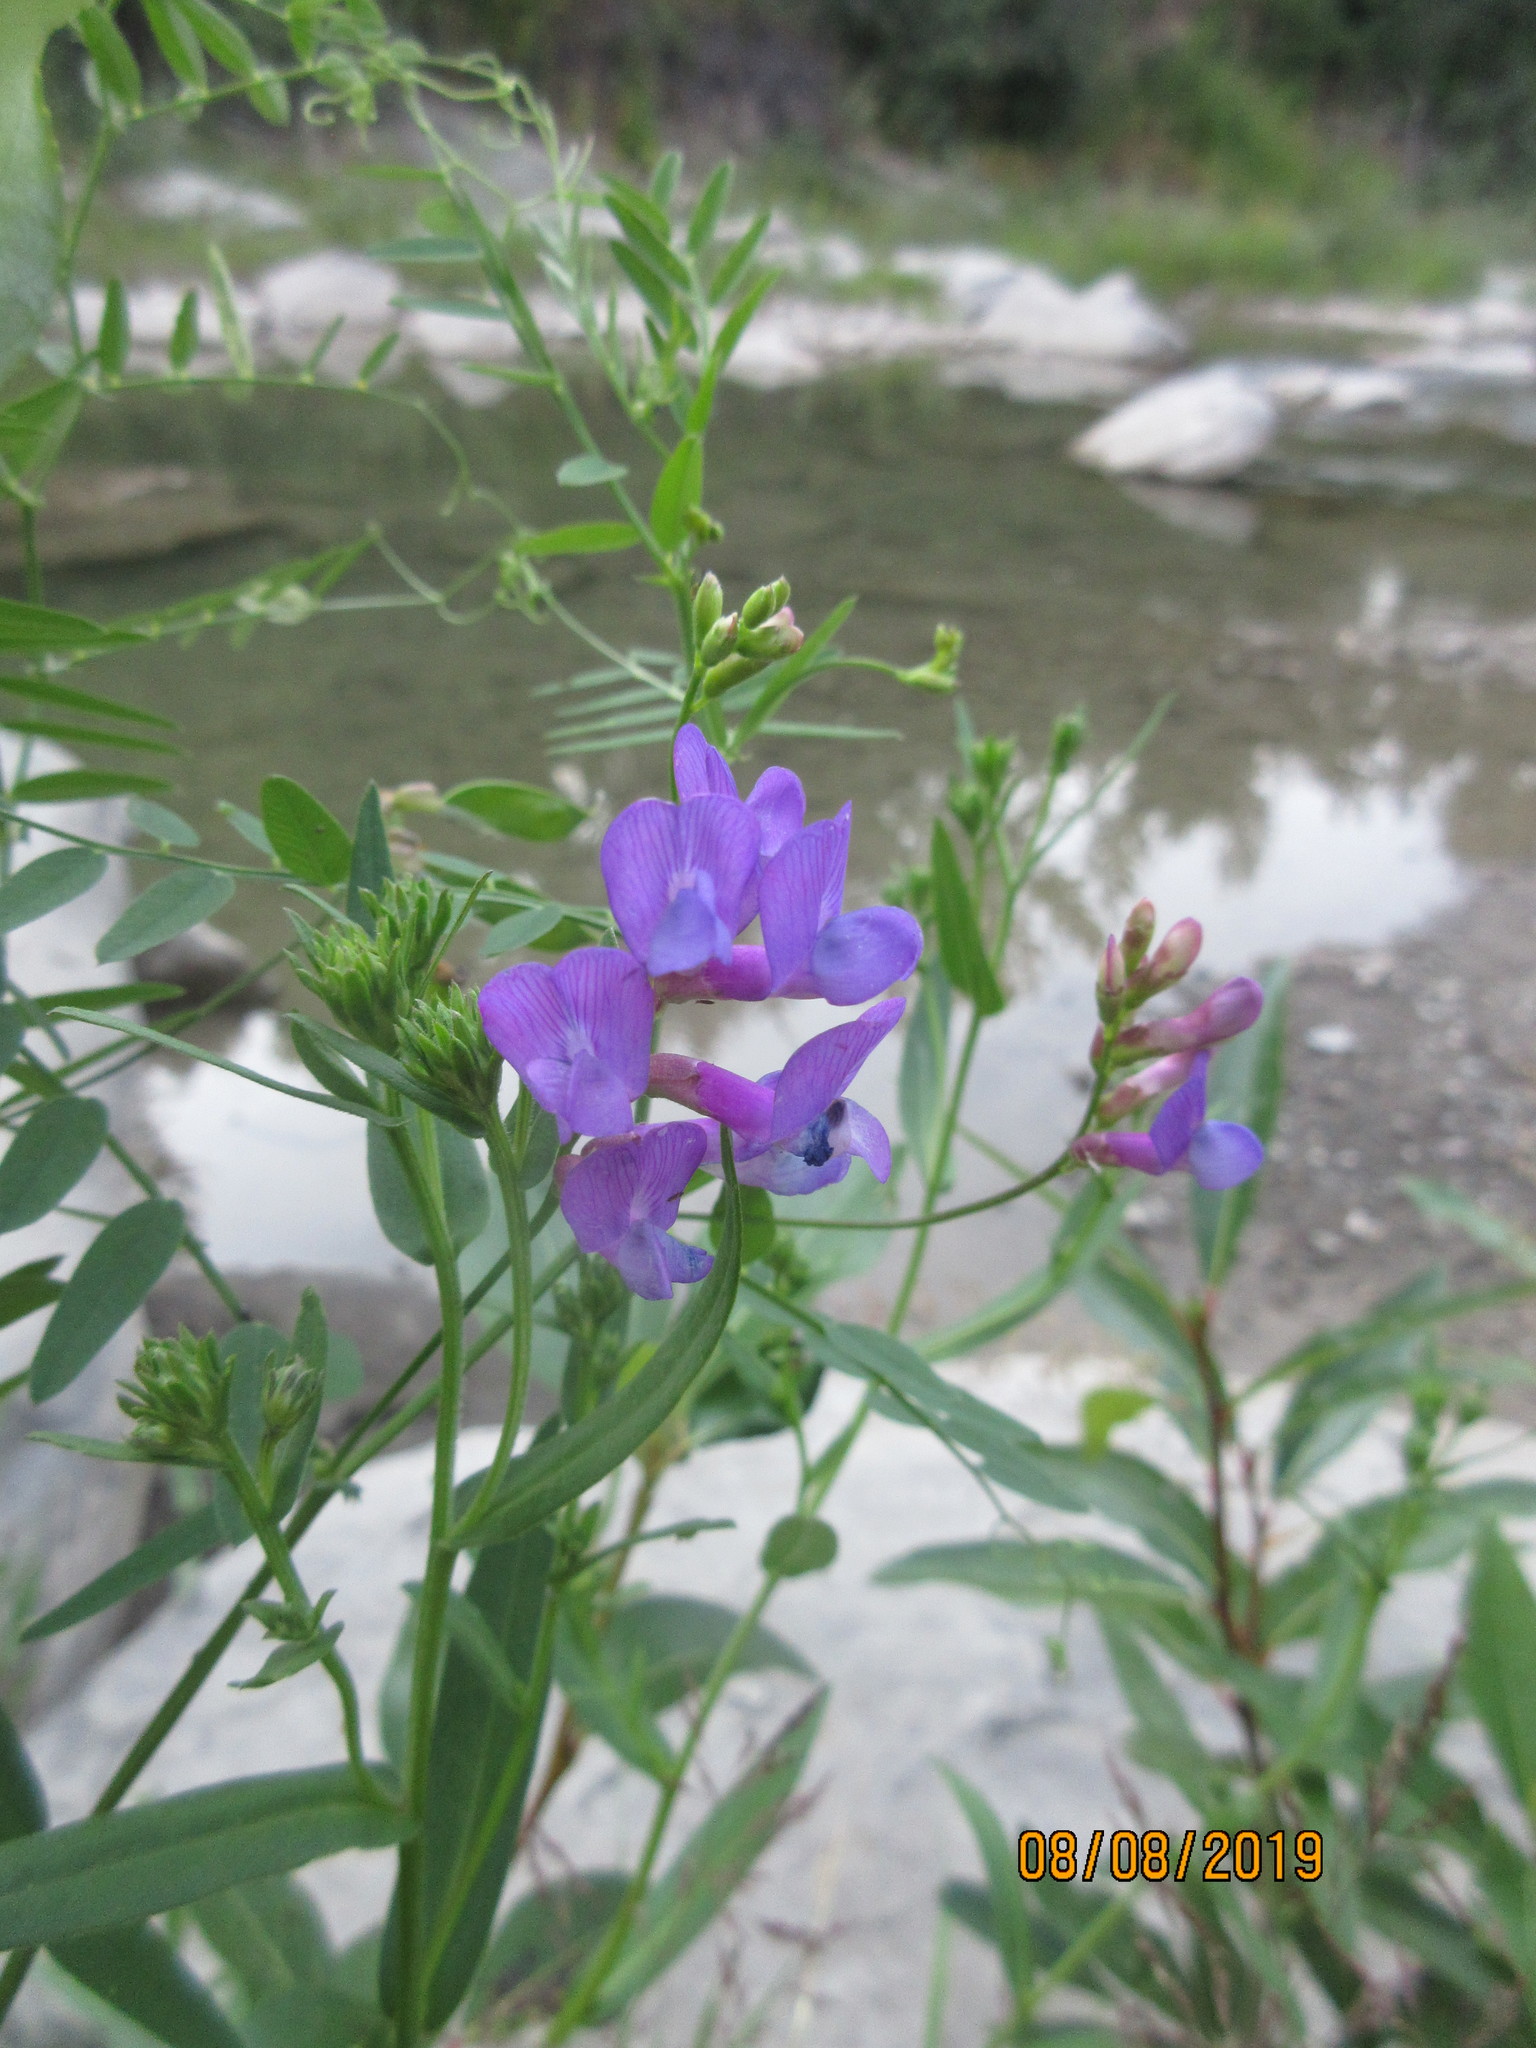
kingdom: Plantae
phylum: Tracheophyta
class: Magnoliopsida
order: Fabales
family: Fabaceae
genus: Vicia
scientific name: Vicia americana
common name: American vetch
